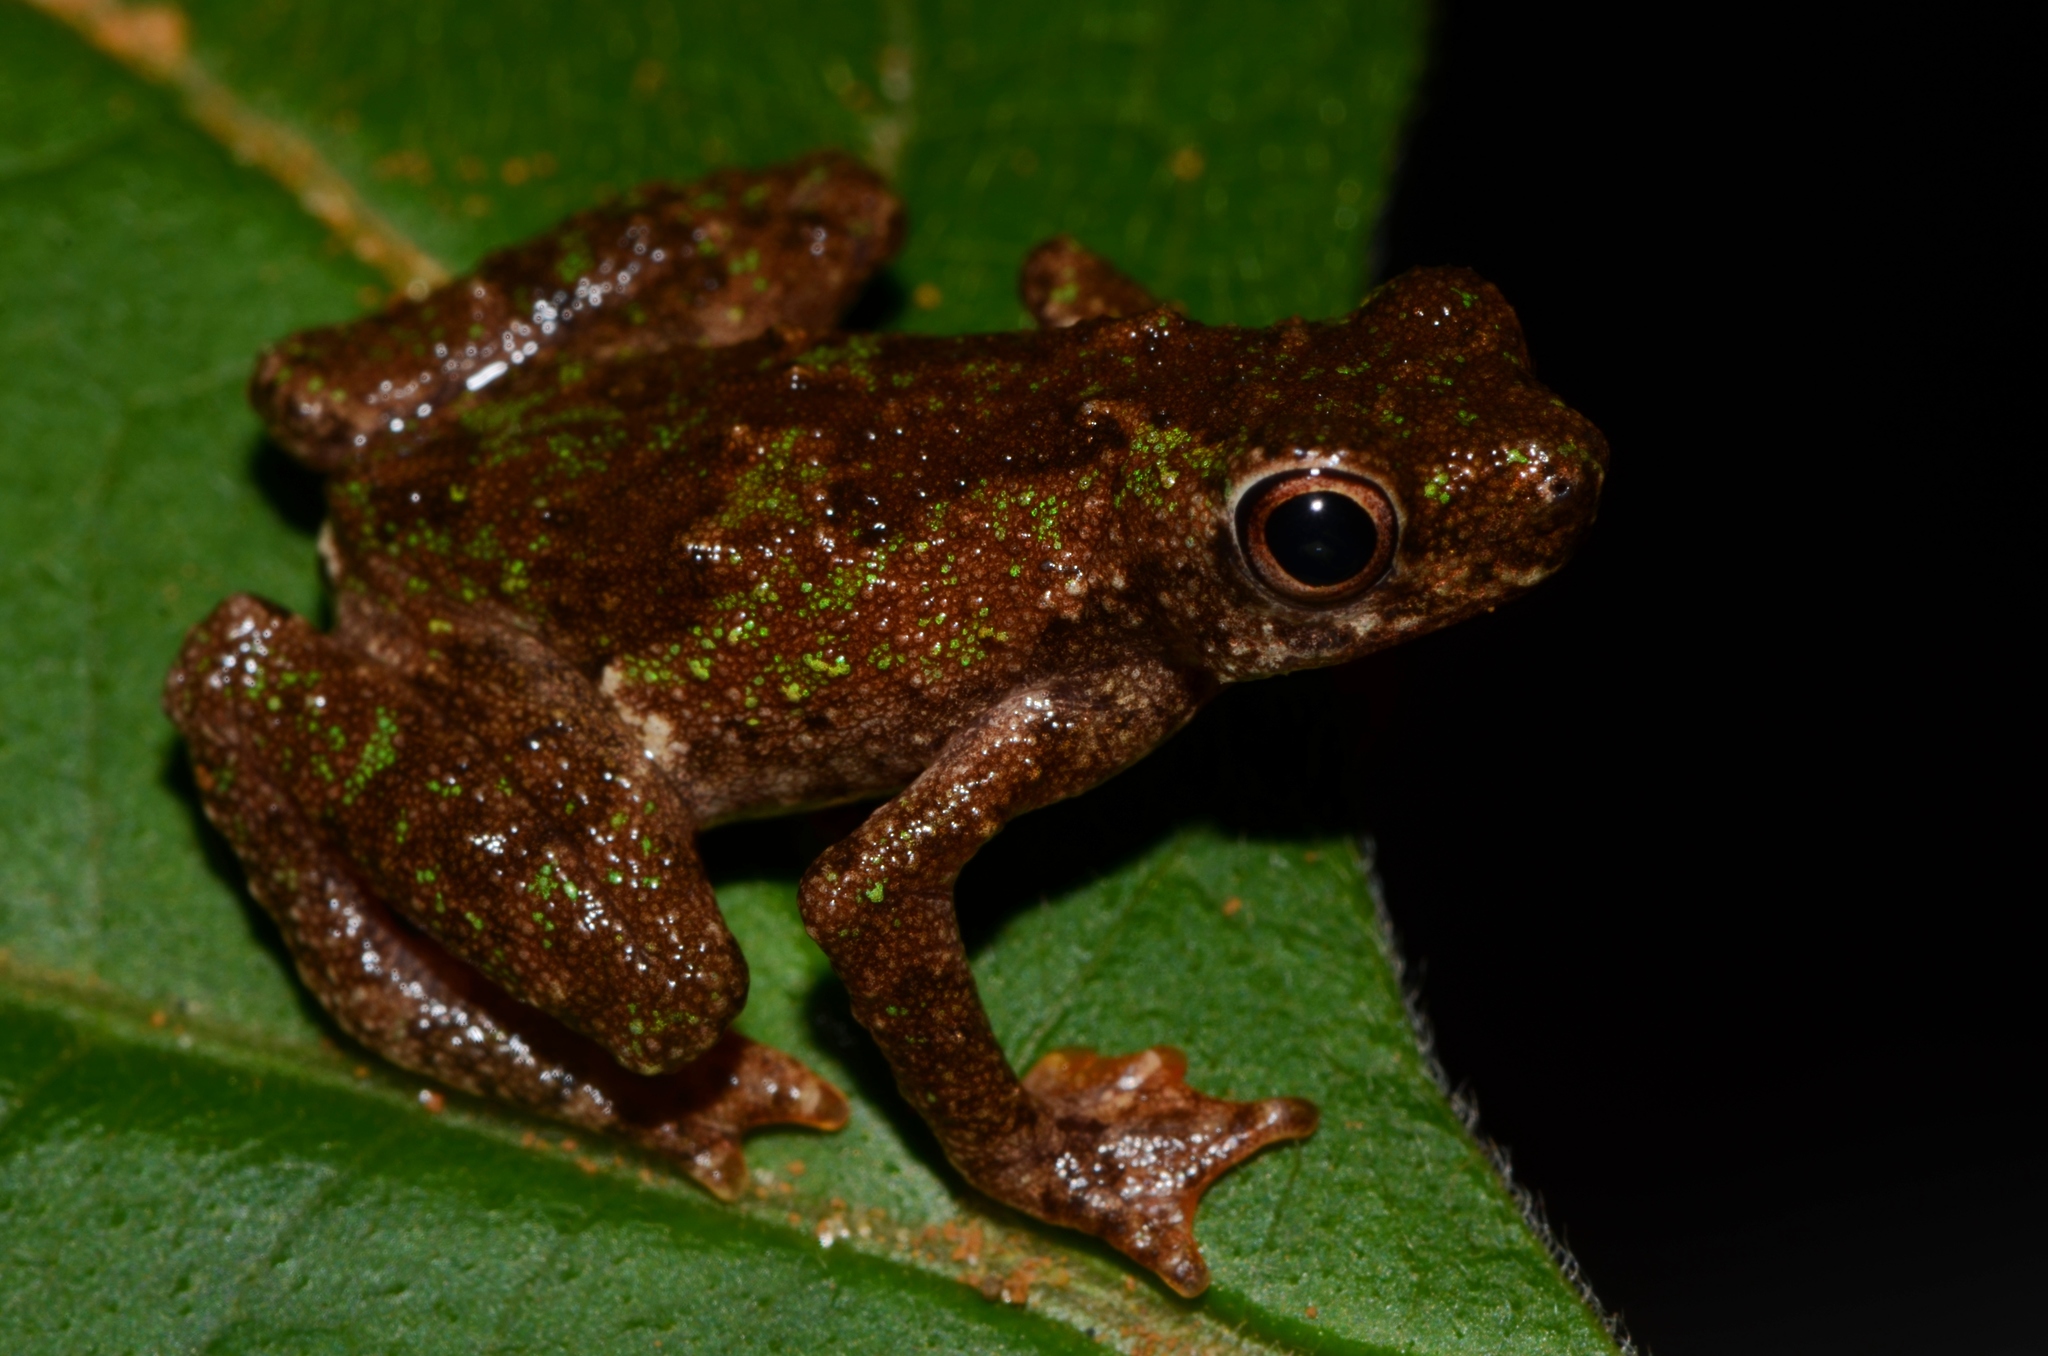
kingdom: Animalia
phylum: Chordata
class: Amphibia
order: Anura
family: Bufonidae
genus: Nectophryne
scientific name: Nectophryne afra
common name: African tree toad
